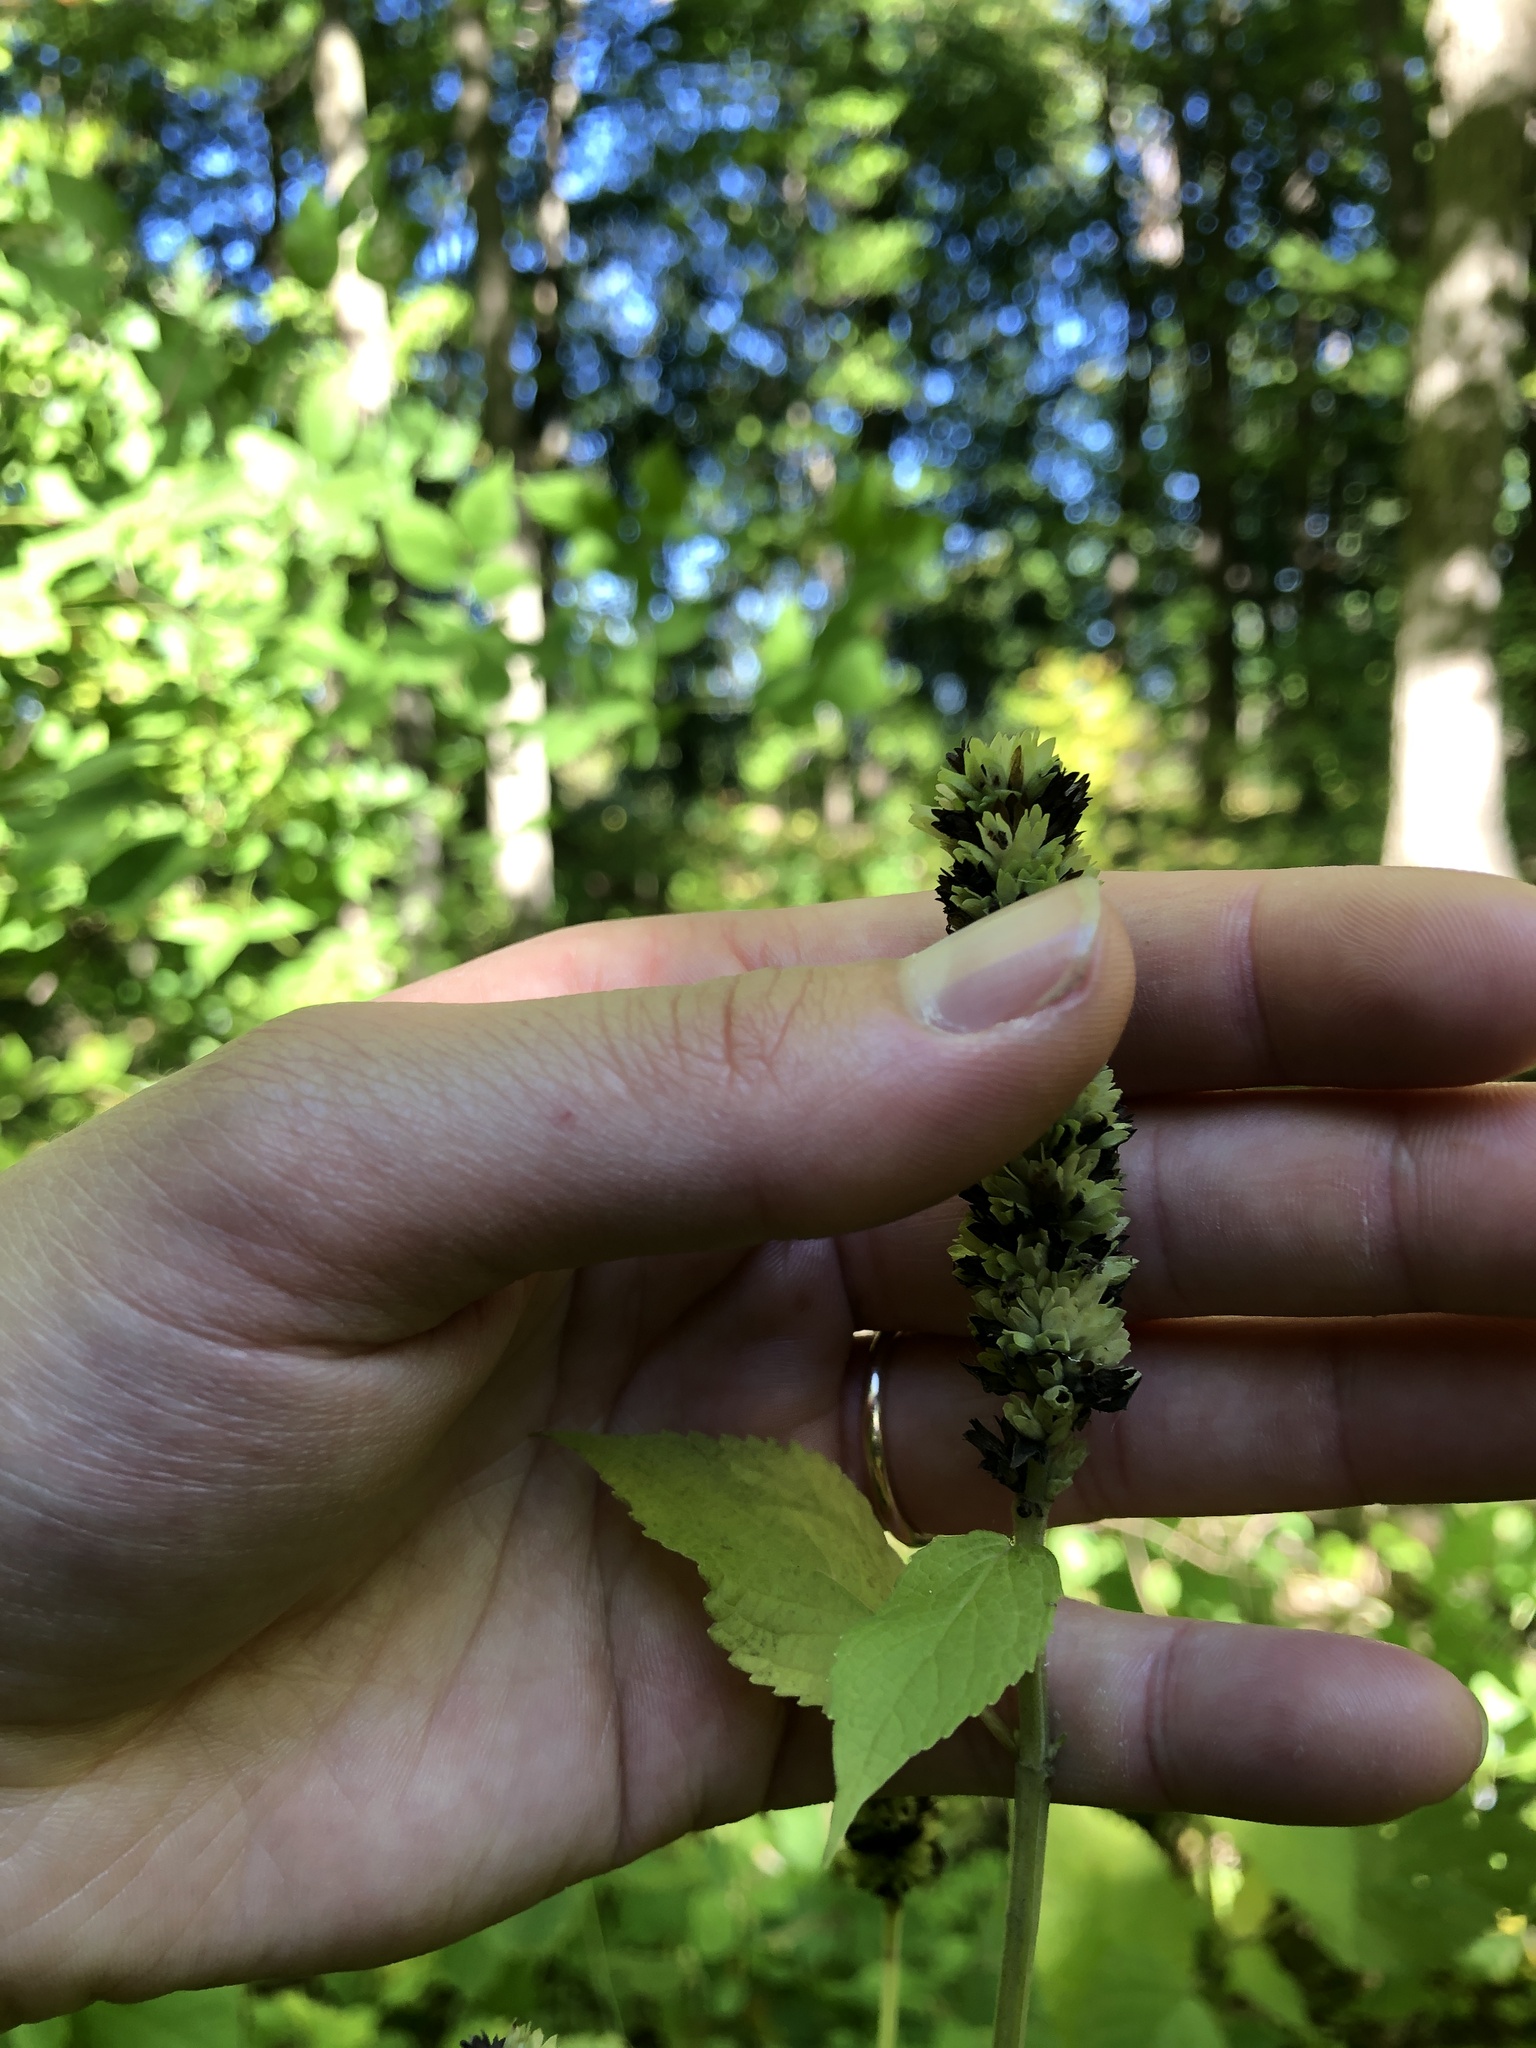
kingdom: Plantae
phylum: Tracheophyta
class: Magnoliopsida
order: Lamiales
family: Lamiaceae
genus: Agastache
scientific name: Agastache nepetoides
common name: Catnip giant hyssop
